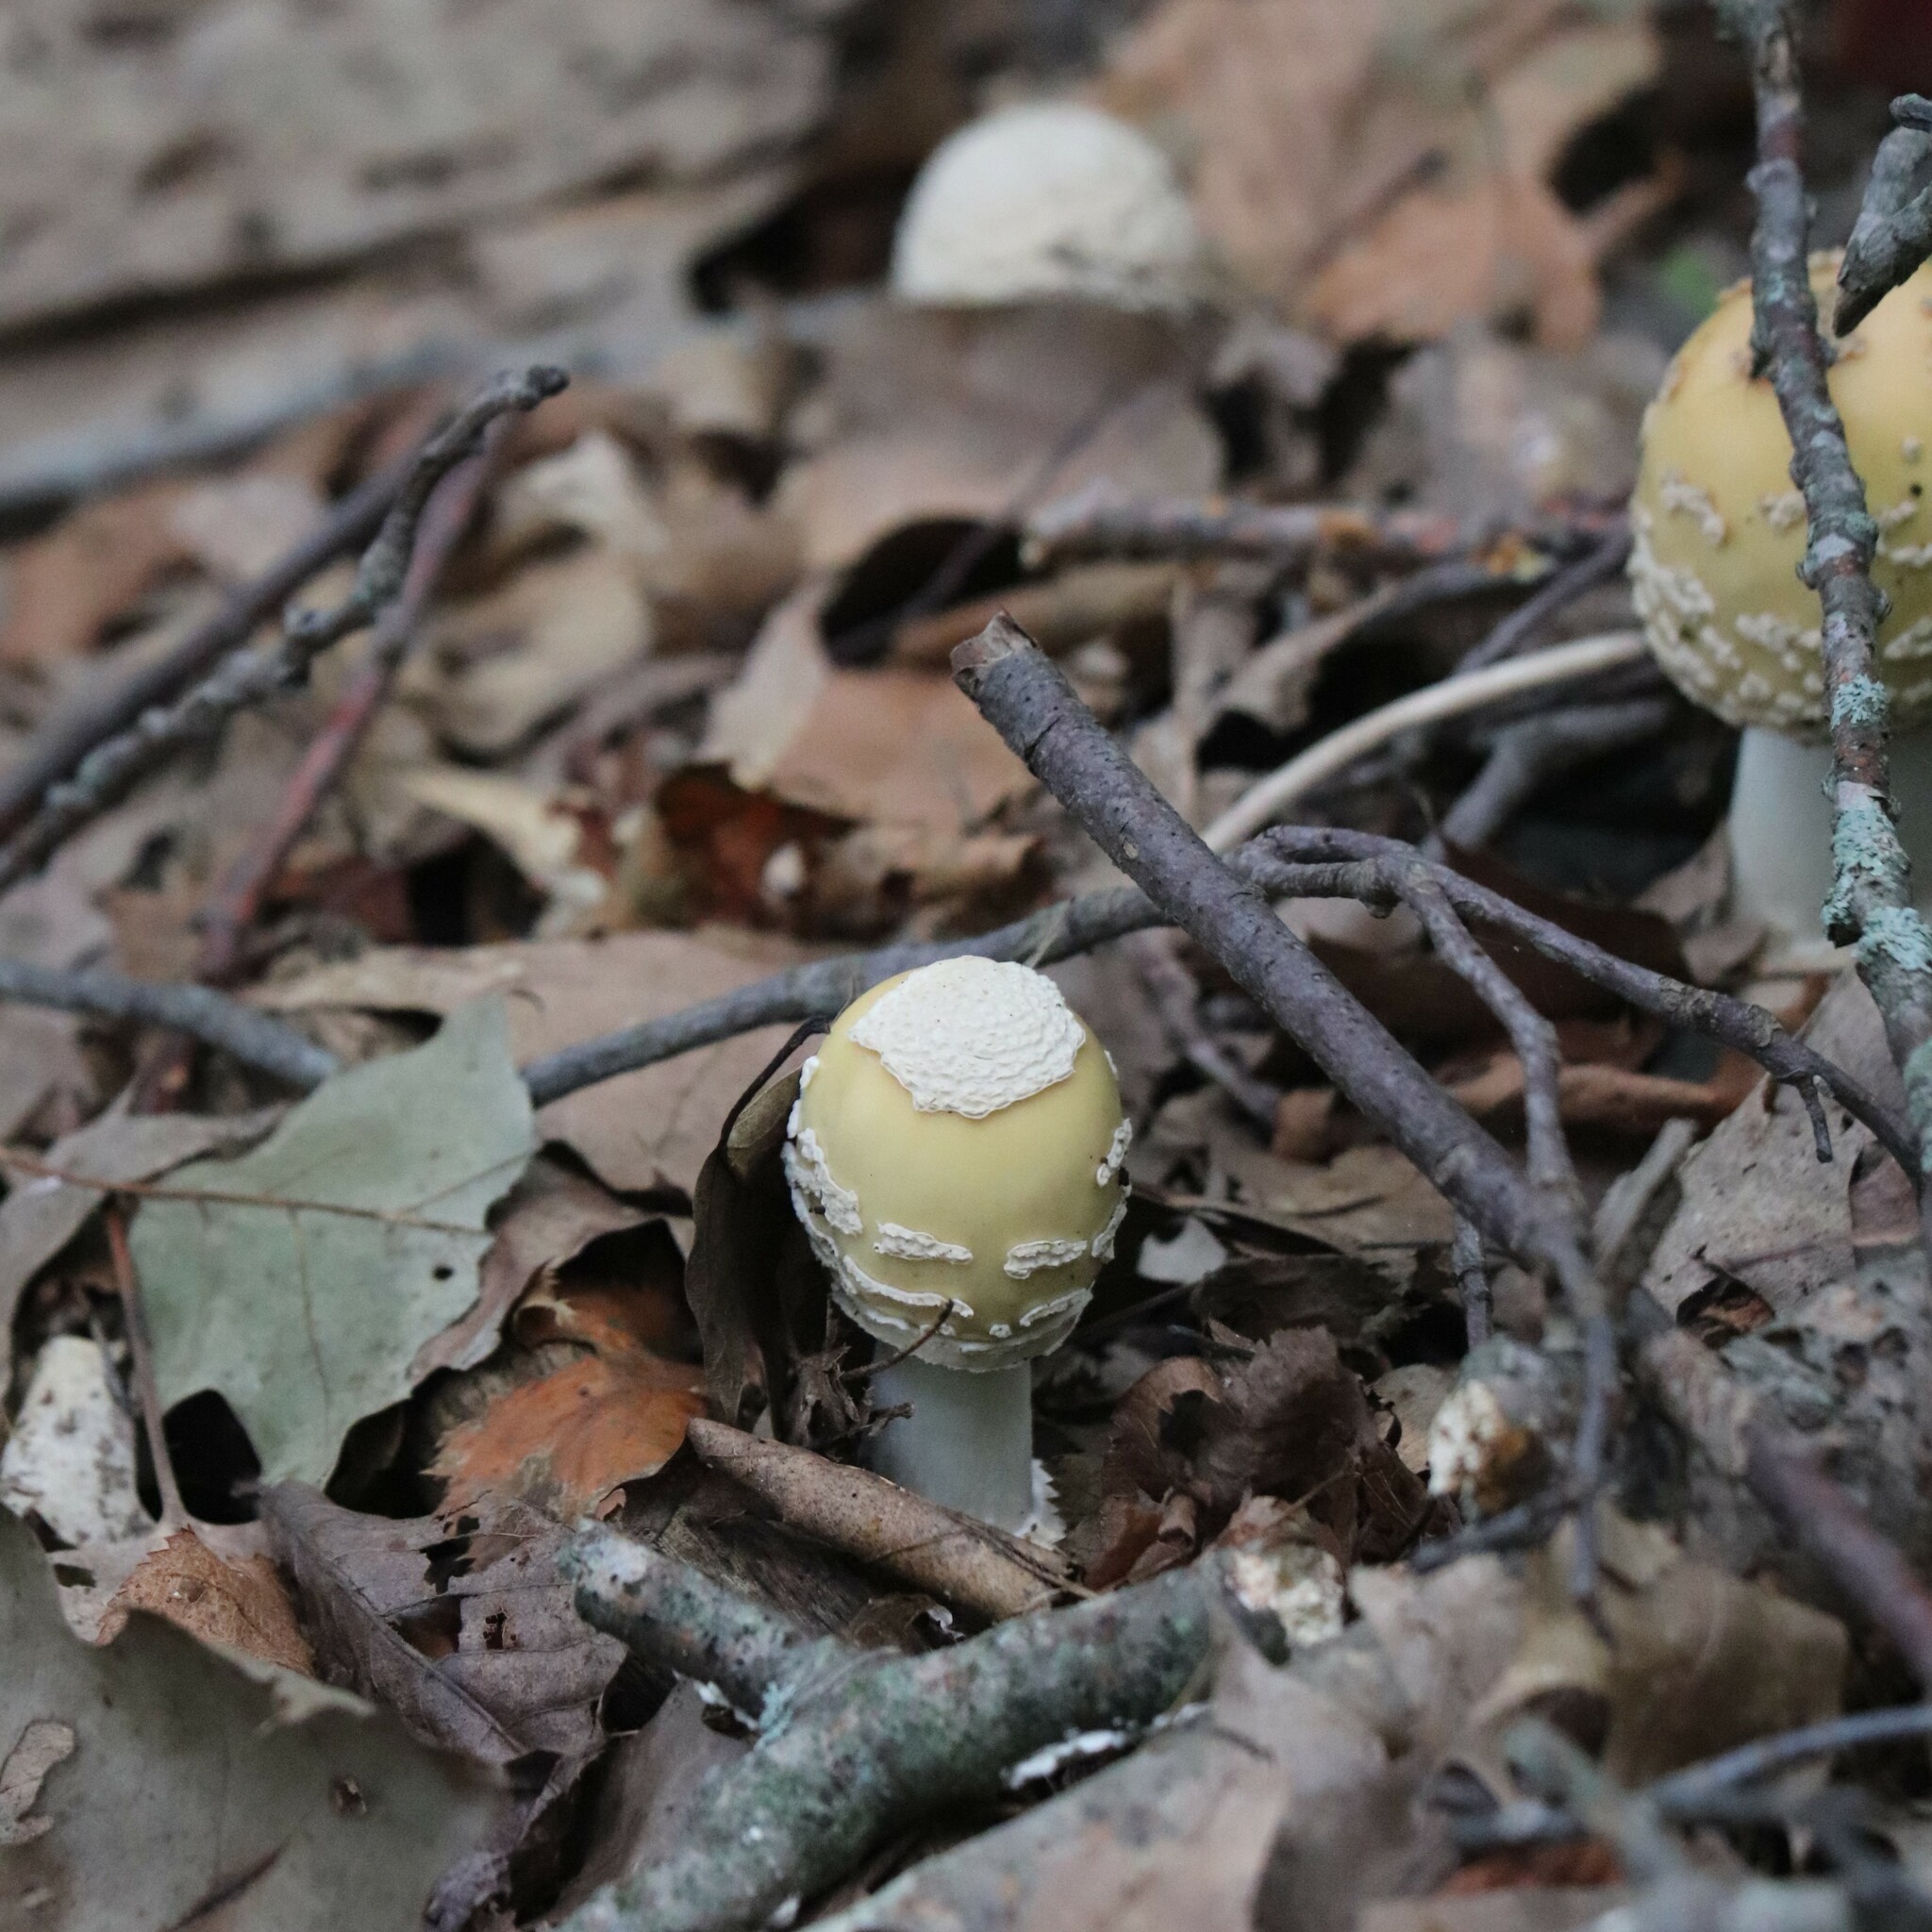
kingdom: Fungi
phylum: Basidiomycota
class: Agaricomycetes
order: Agaricales
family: Amanitaceae
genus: Amanita
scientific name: Amanita velatipes
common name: Great funnel-veil amanita
